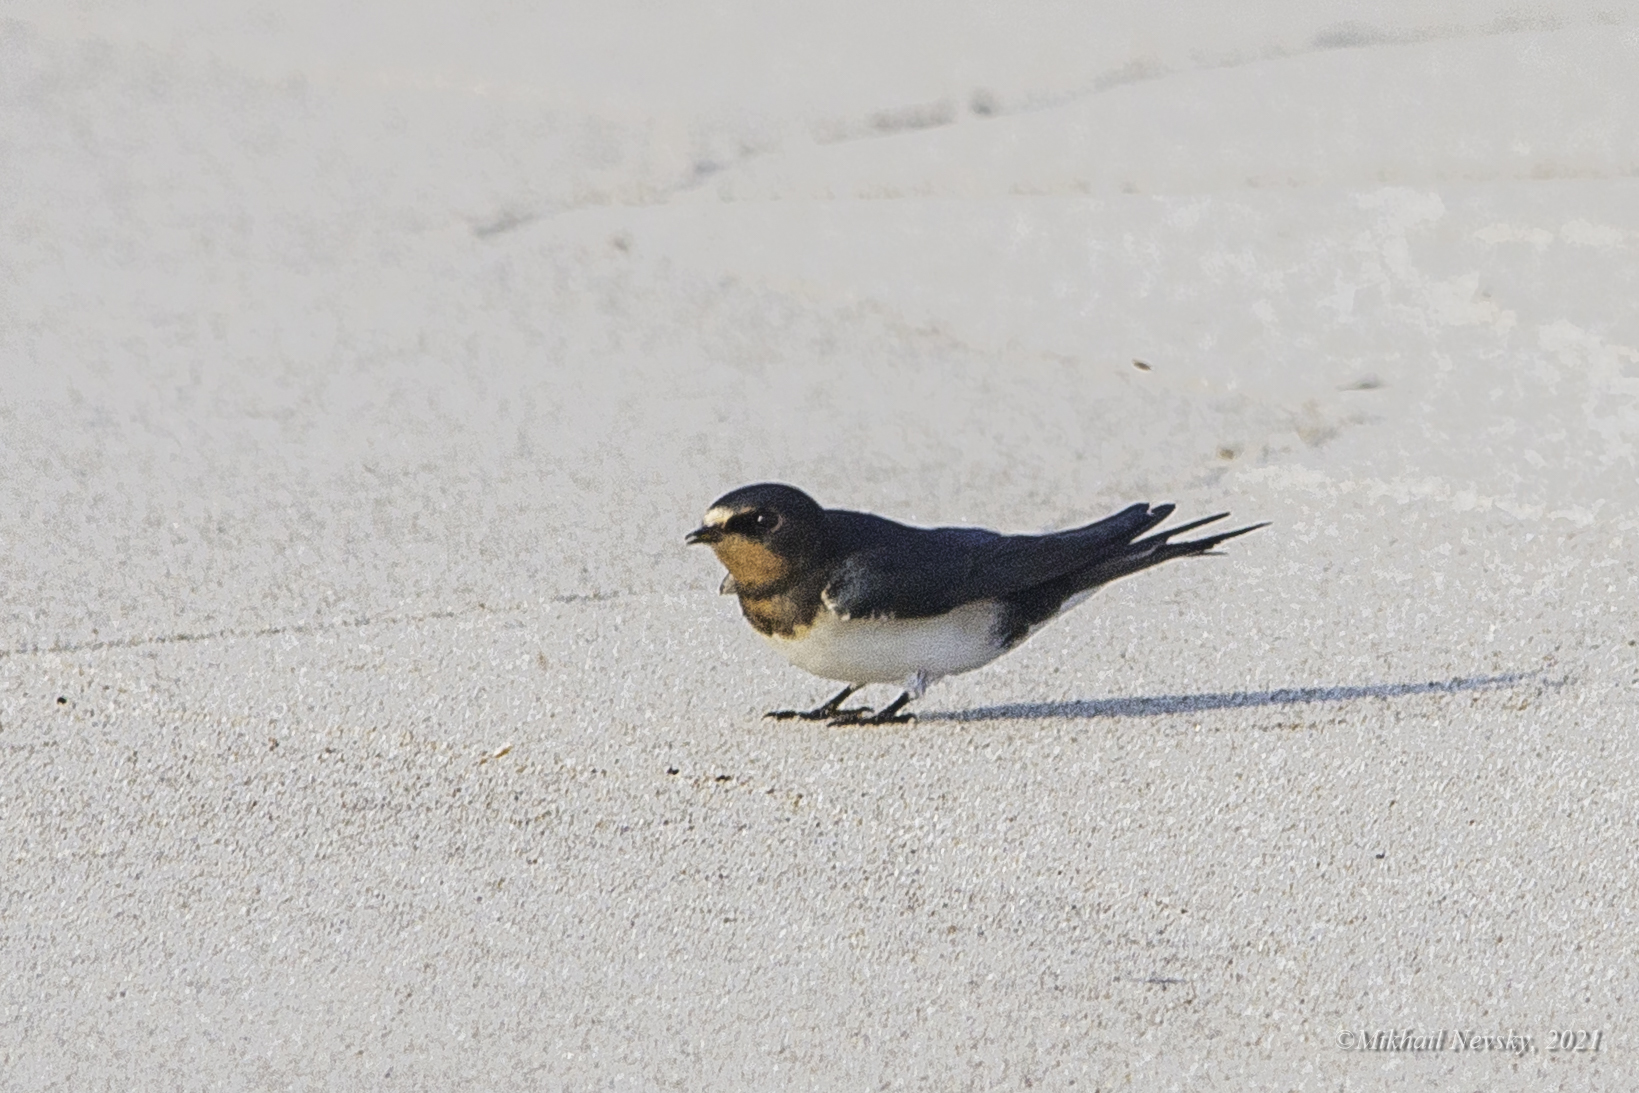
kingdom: Animalia
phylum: Chordata
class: Aves
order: Passeriformes
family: Hirundinidae
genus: Hirundo
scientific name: Hirundo rustica
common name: Barn swallow
